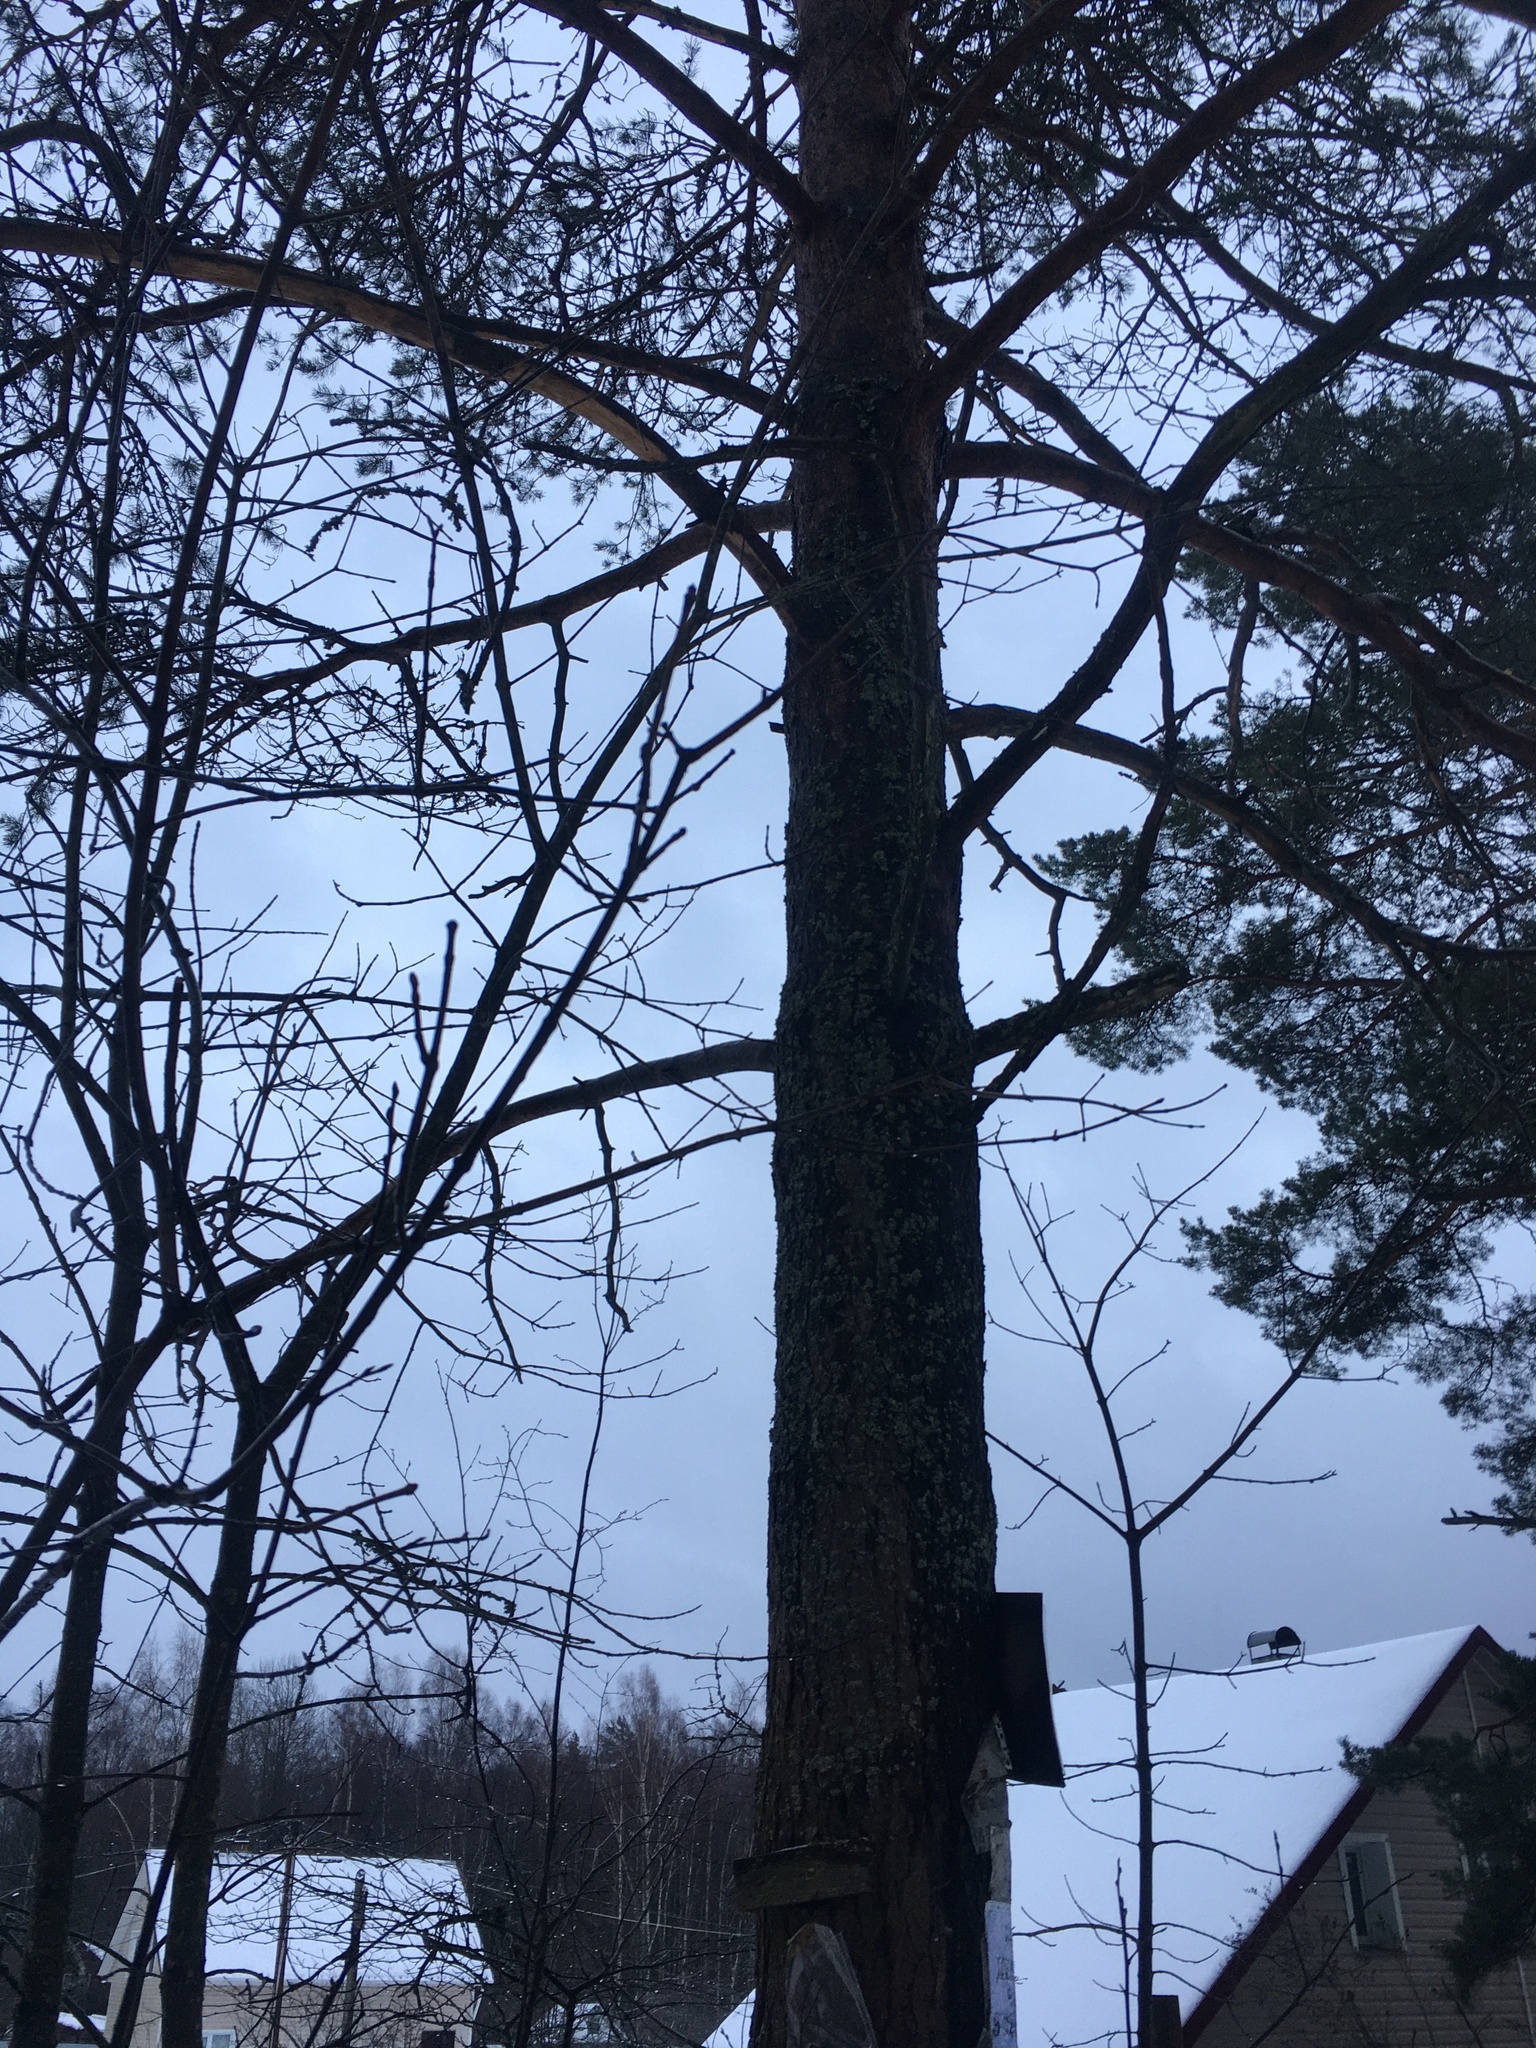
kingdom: Plantae
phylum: Tracheophyta
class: Pinopsida
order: Pinales
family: Pinaceae
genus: Pinus
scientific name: Pinus sylvestris
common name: Scots pine
